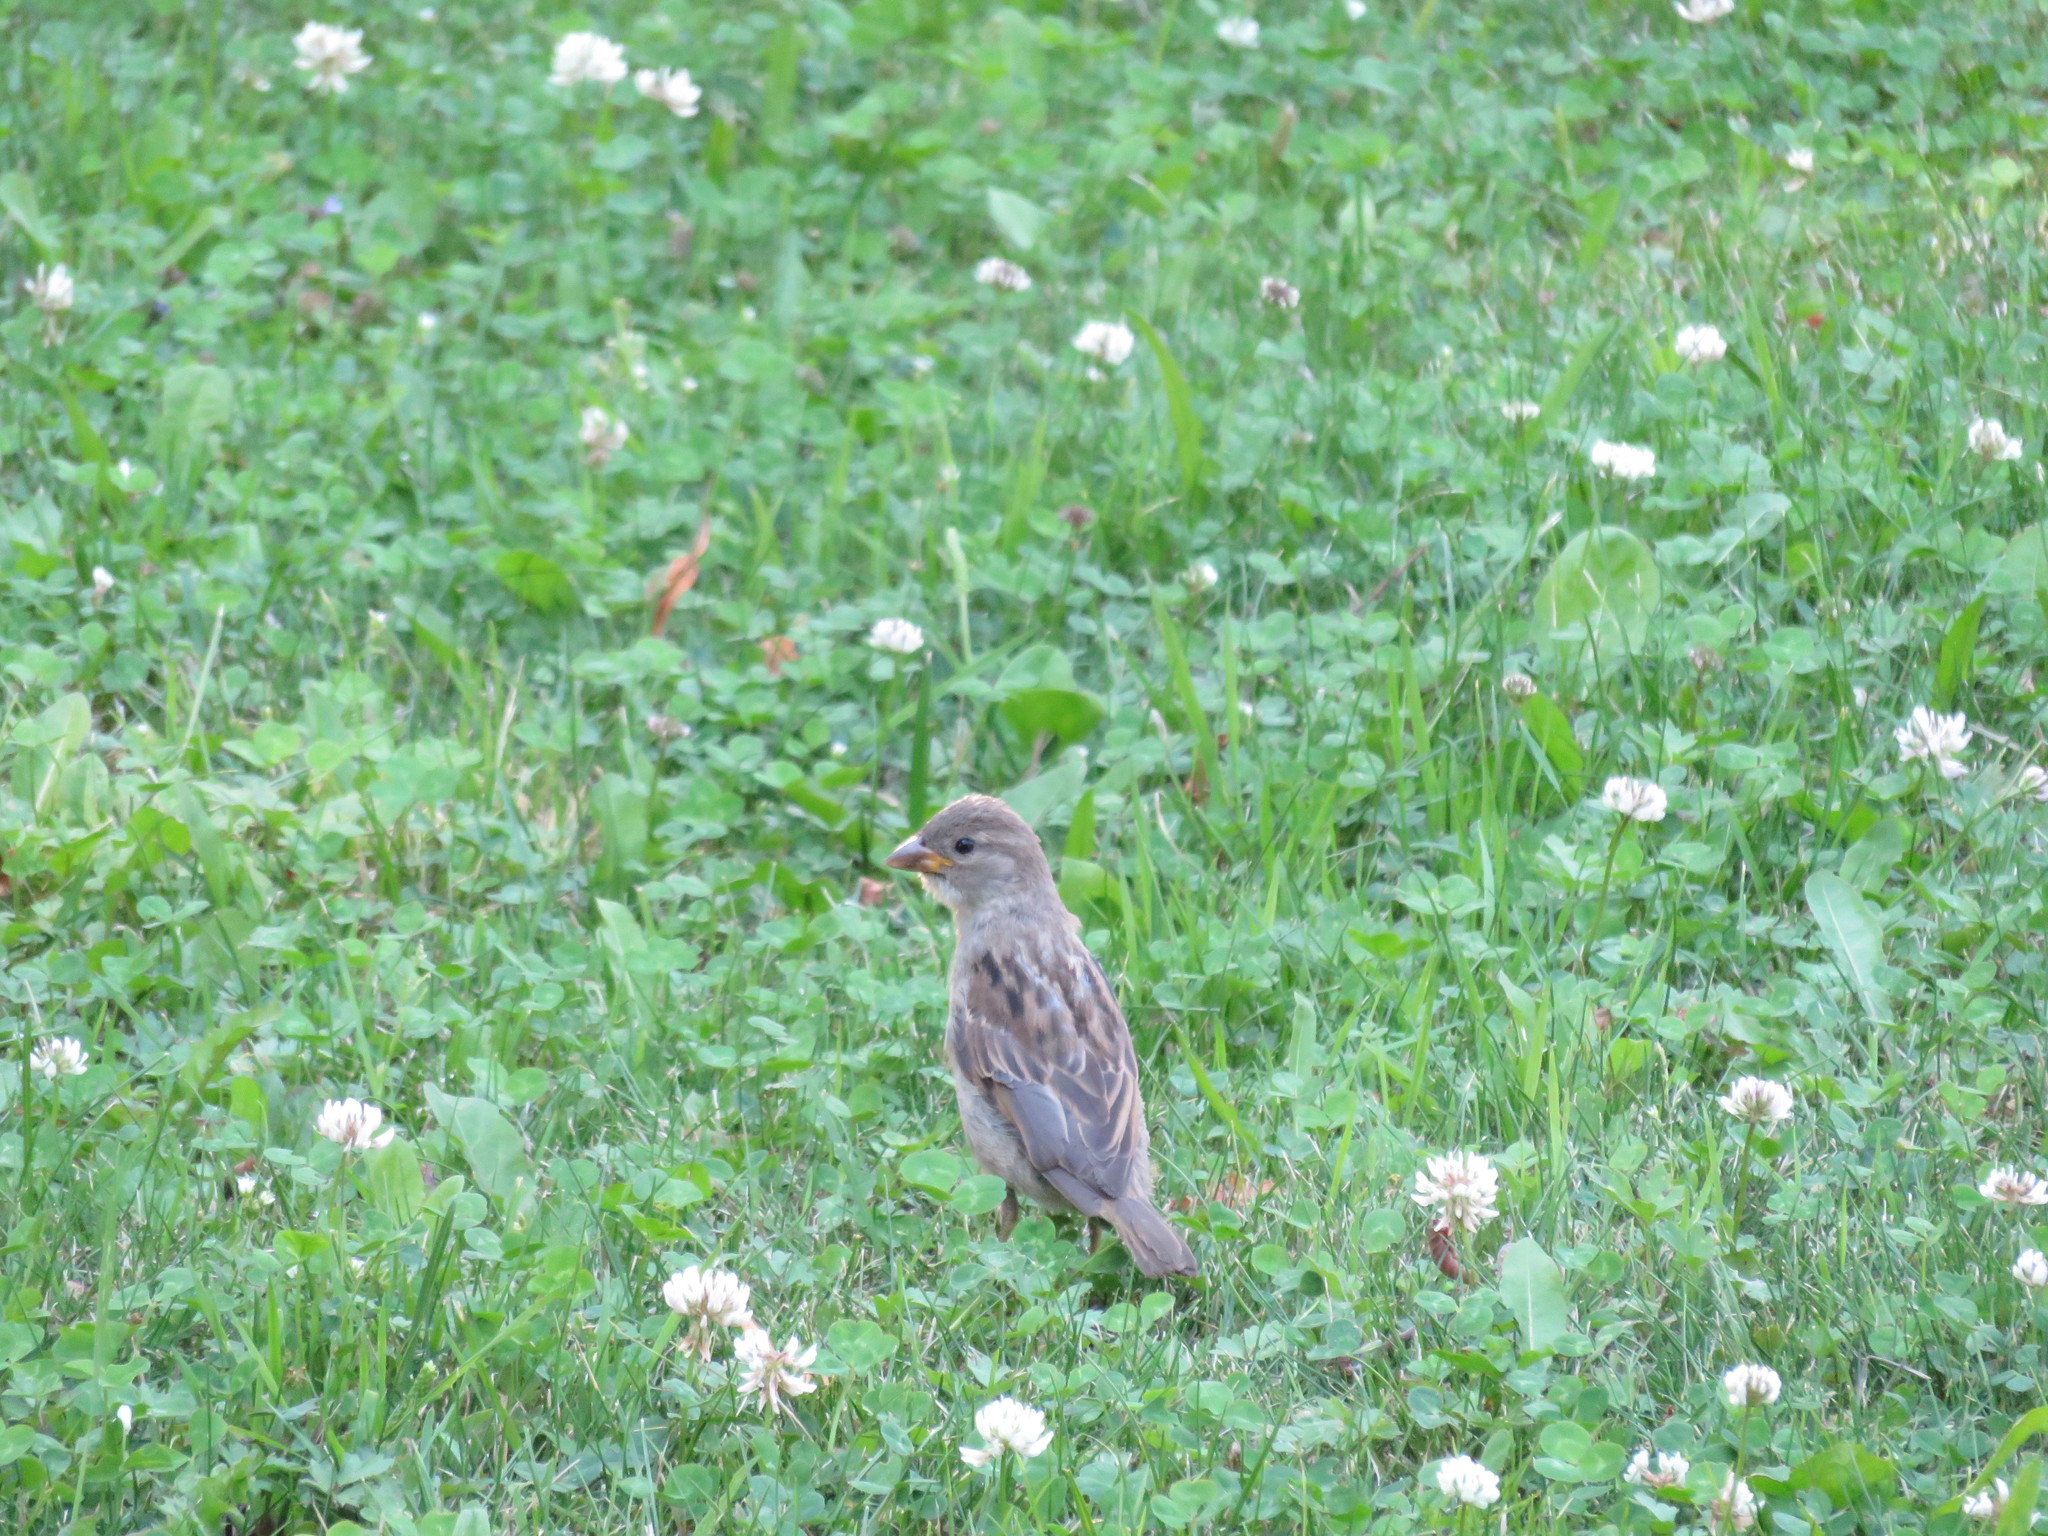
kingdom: Animalia
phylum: Chordata
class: Aves
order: Passeriformes
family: Passeridae
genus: Passer
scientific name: Passer domesticus
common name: House sparrow
